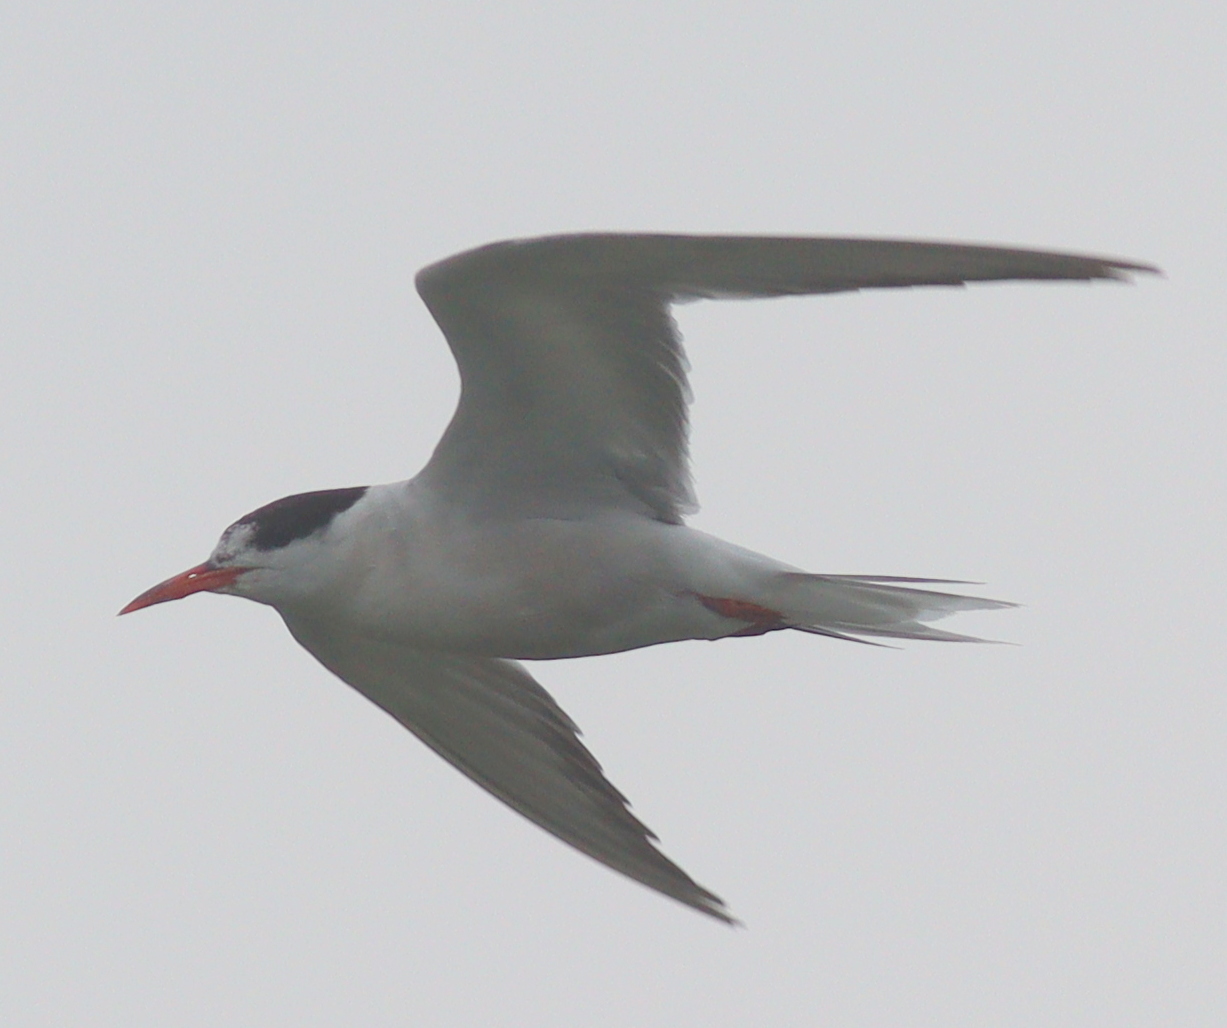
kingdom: Animalia
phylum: Chordata
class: Aves
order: Charadriiformes
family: Laridae
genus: Sterna
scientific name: Sterna hirundo
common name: Common tern
